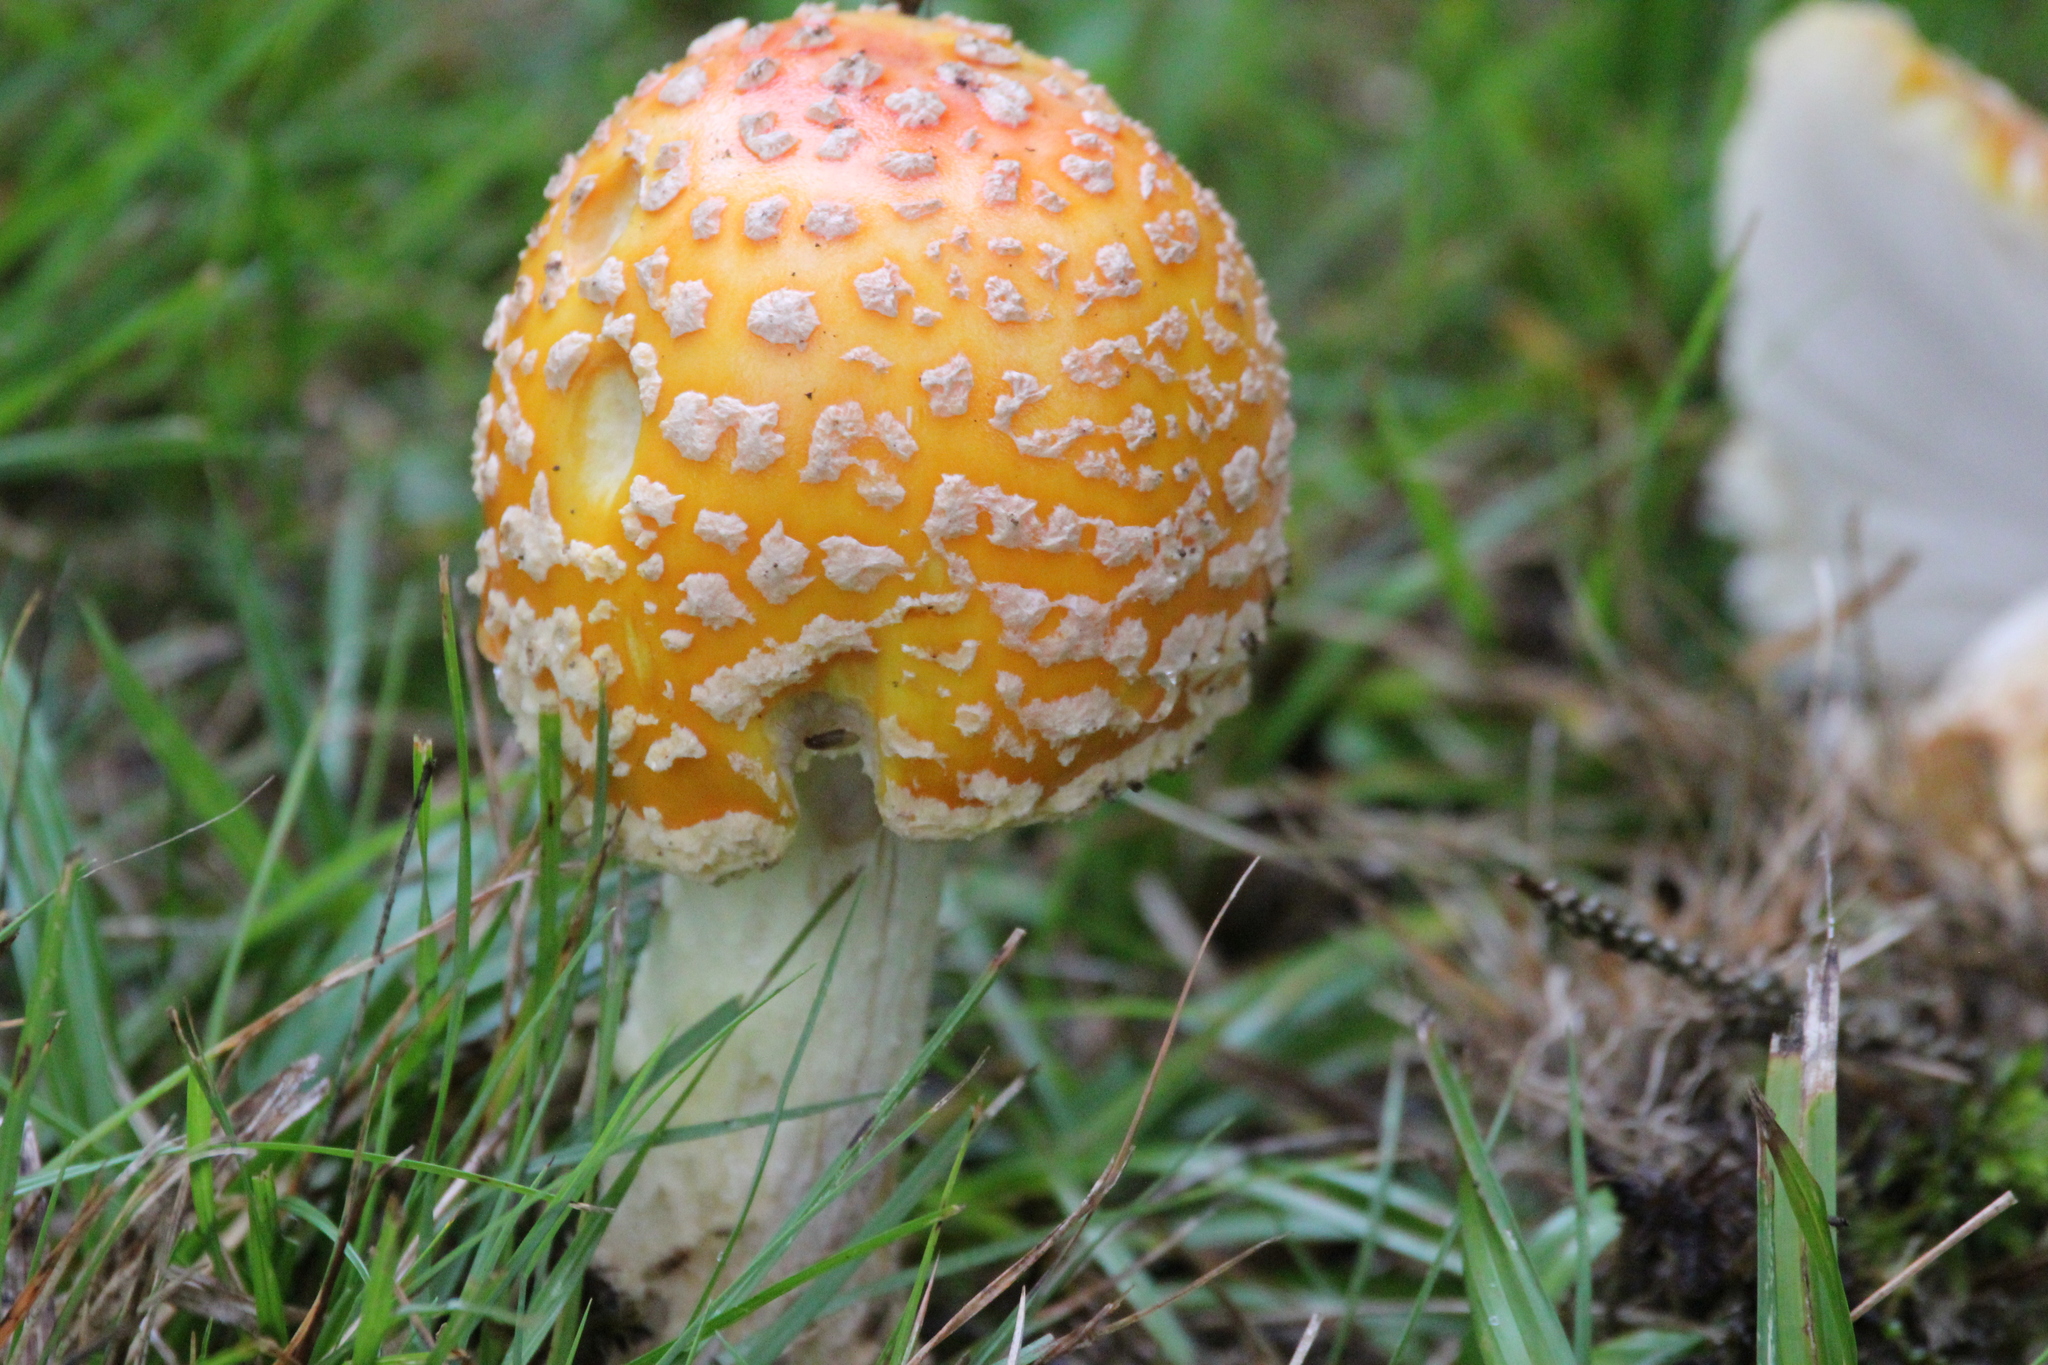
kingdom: Fungi
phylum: Basidiomycota
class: Agaricomycetes
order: Agaricales
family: Amanitaceae
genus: Amanita
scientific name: Amanita muscaria
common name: Fly agaric
